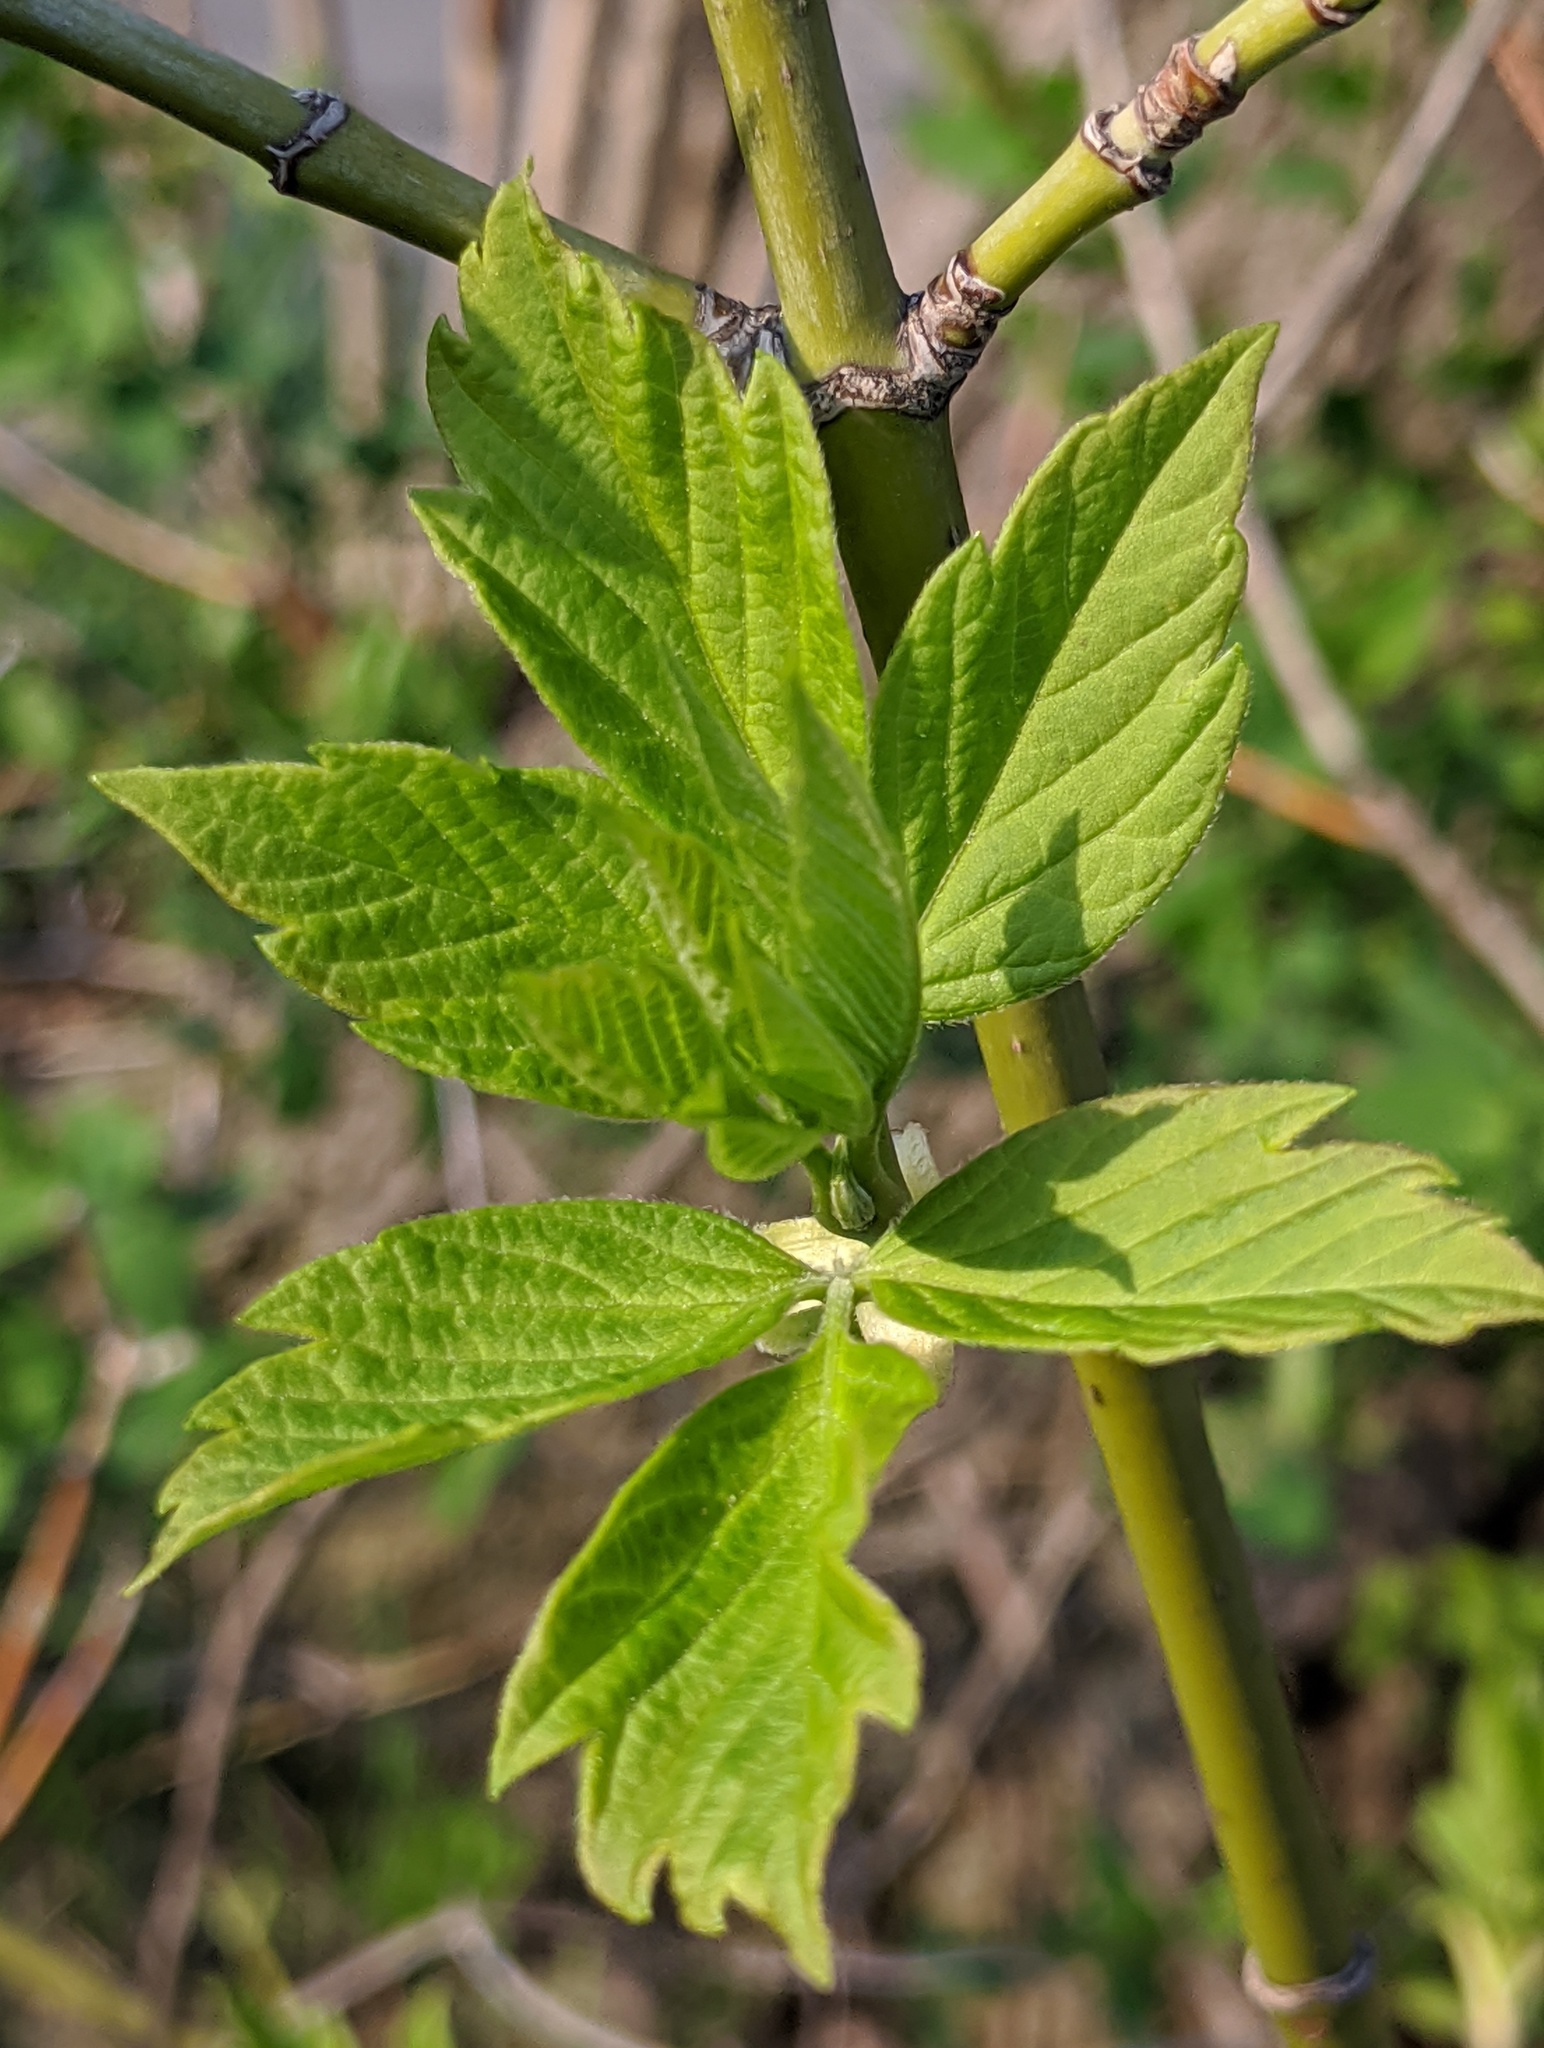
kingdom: Plantae
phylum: Tracheophyta
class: Magnoliopsida
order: Sapindales
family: Sapindaceae
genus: Acer
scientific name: Acer negundo
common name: Ashleaf maple
